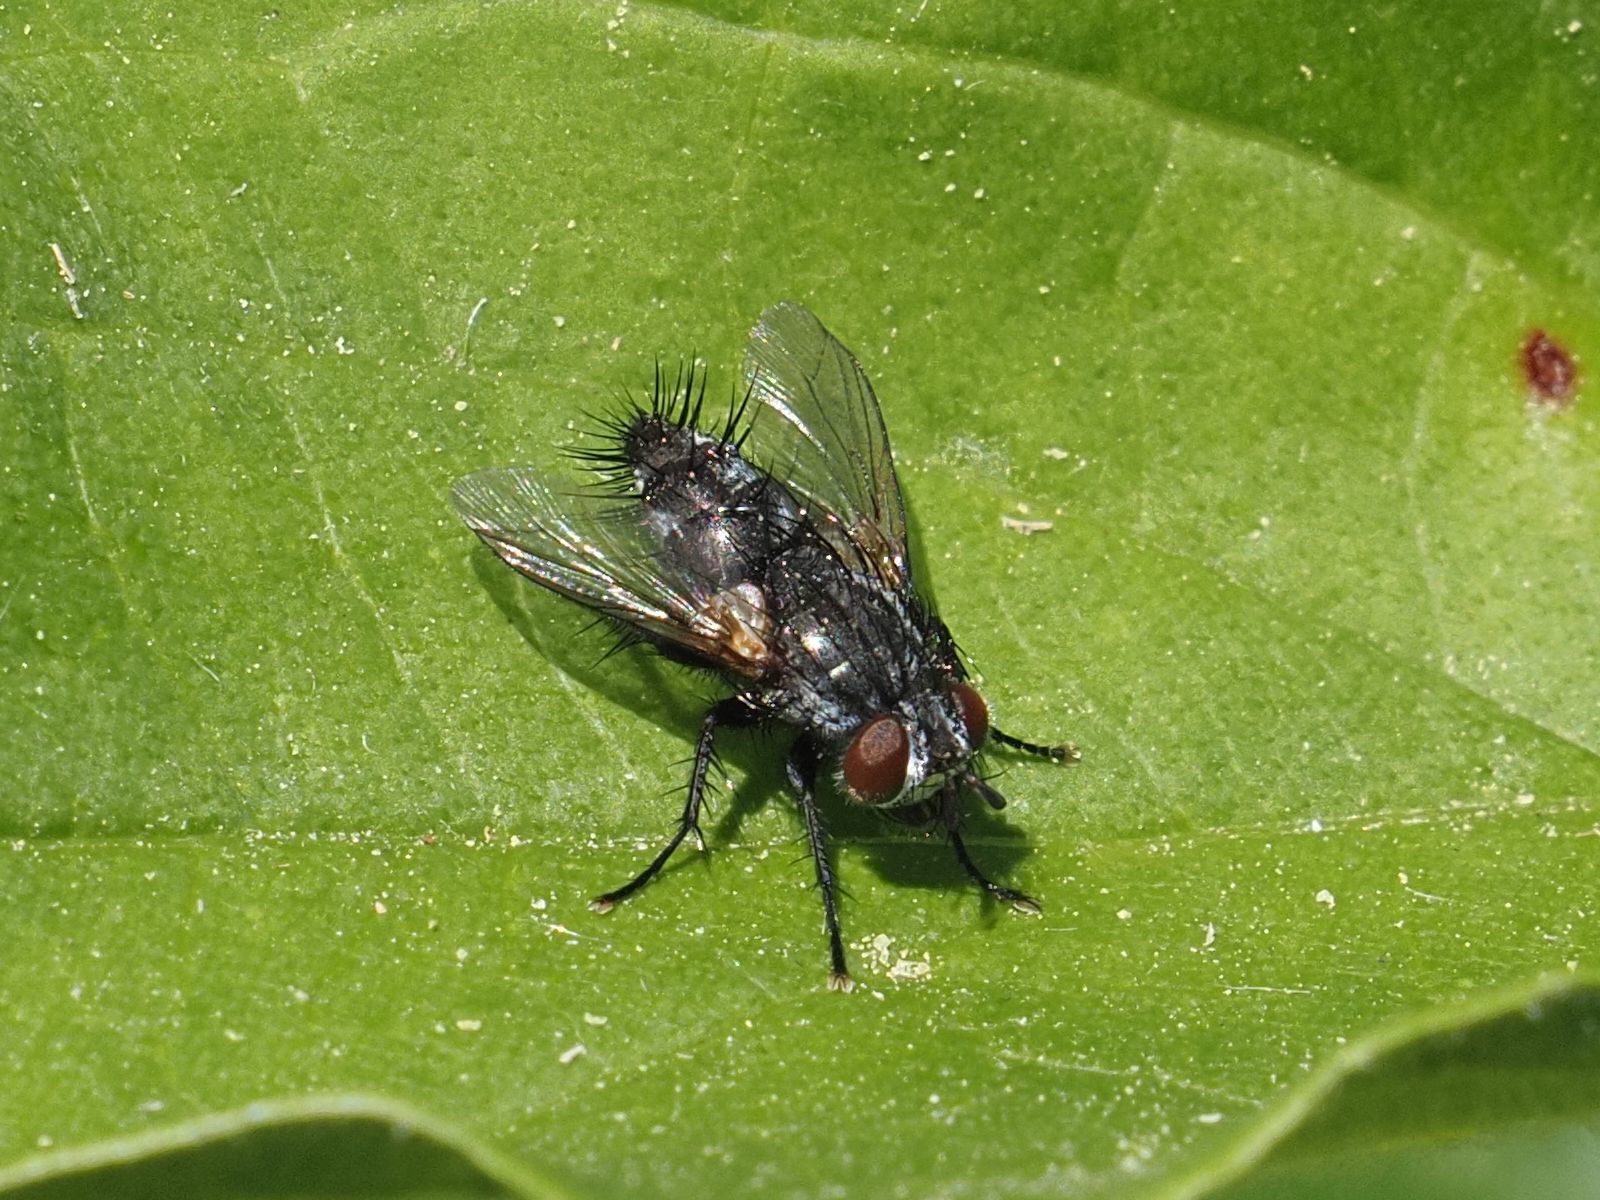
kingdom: Animalia
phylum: Arthropoda
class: Insecta
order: Diptera
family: Tachinidae
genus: Voria
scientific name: Voria ruralis
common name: Parasitic fly
